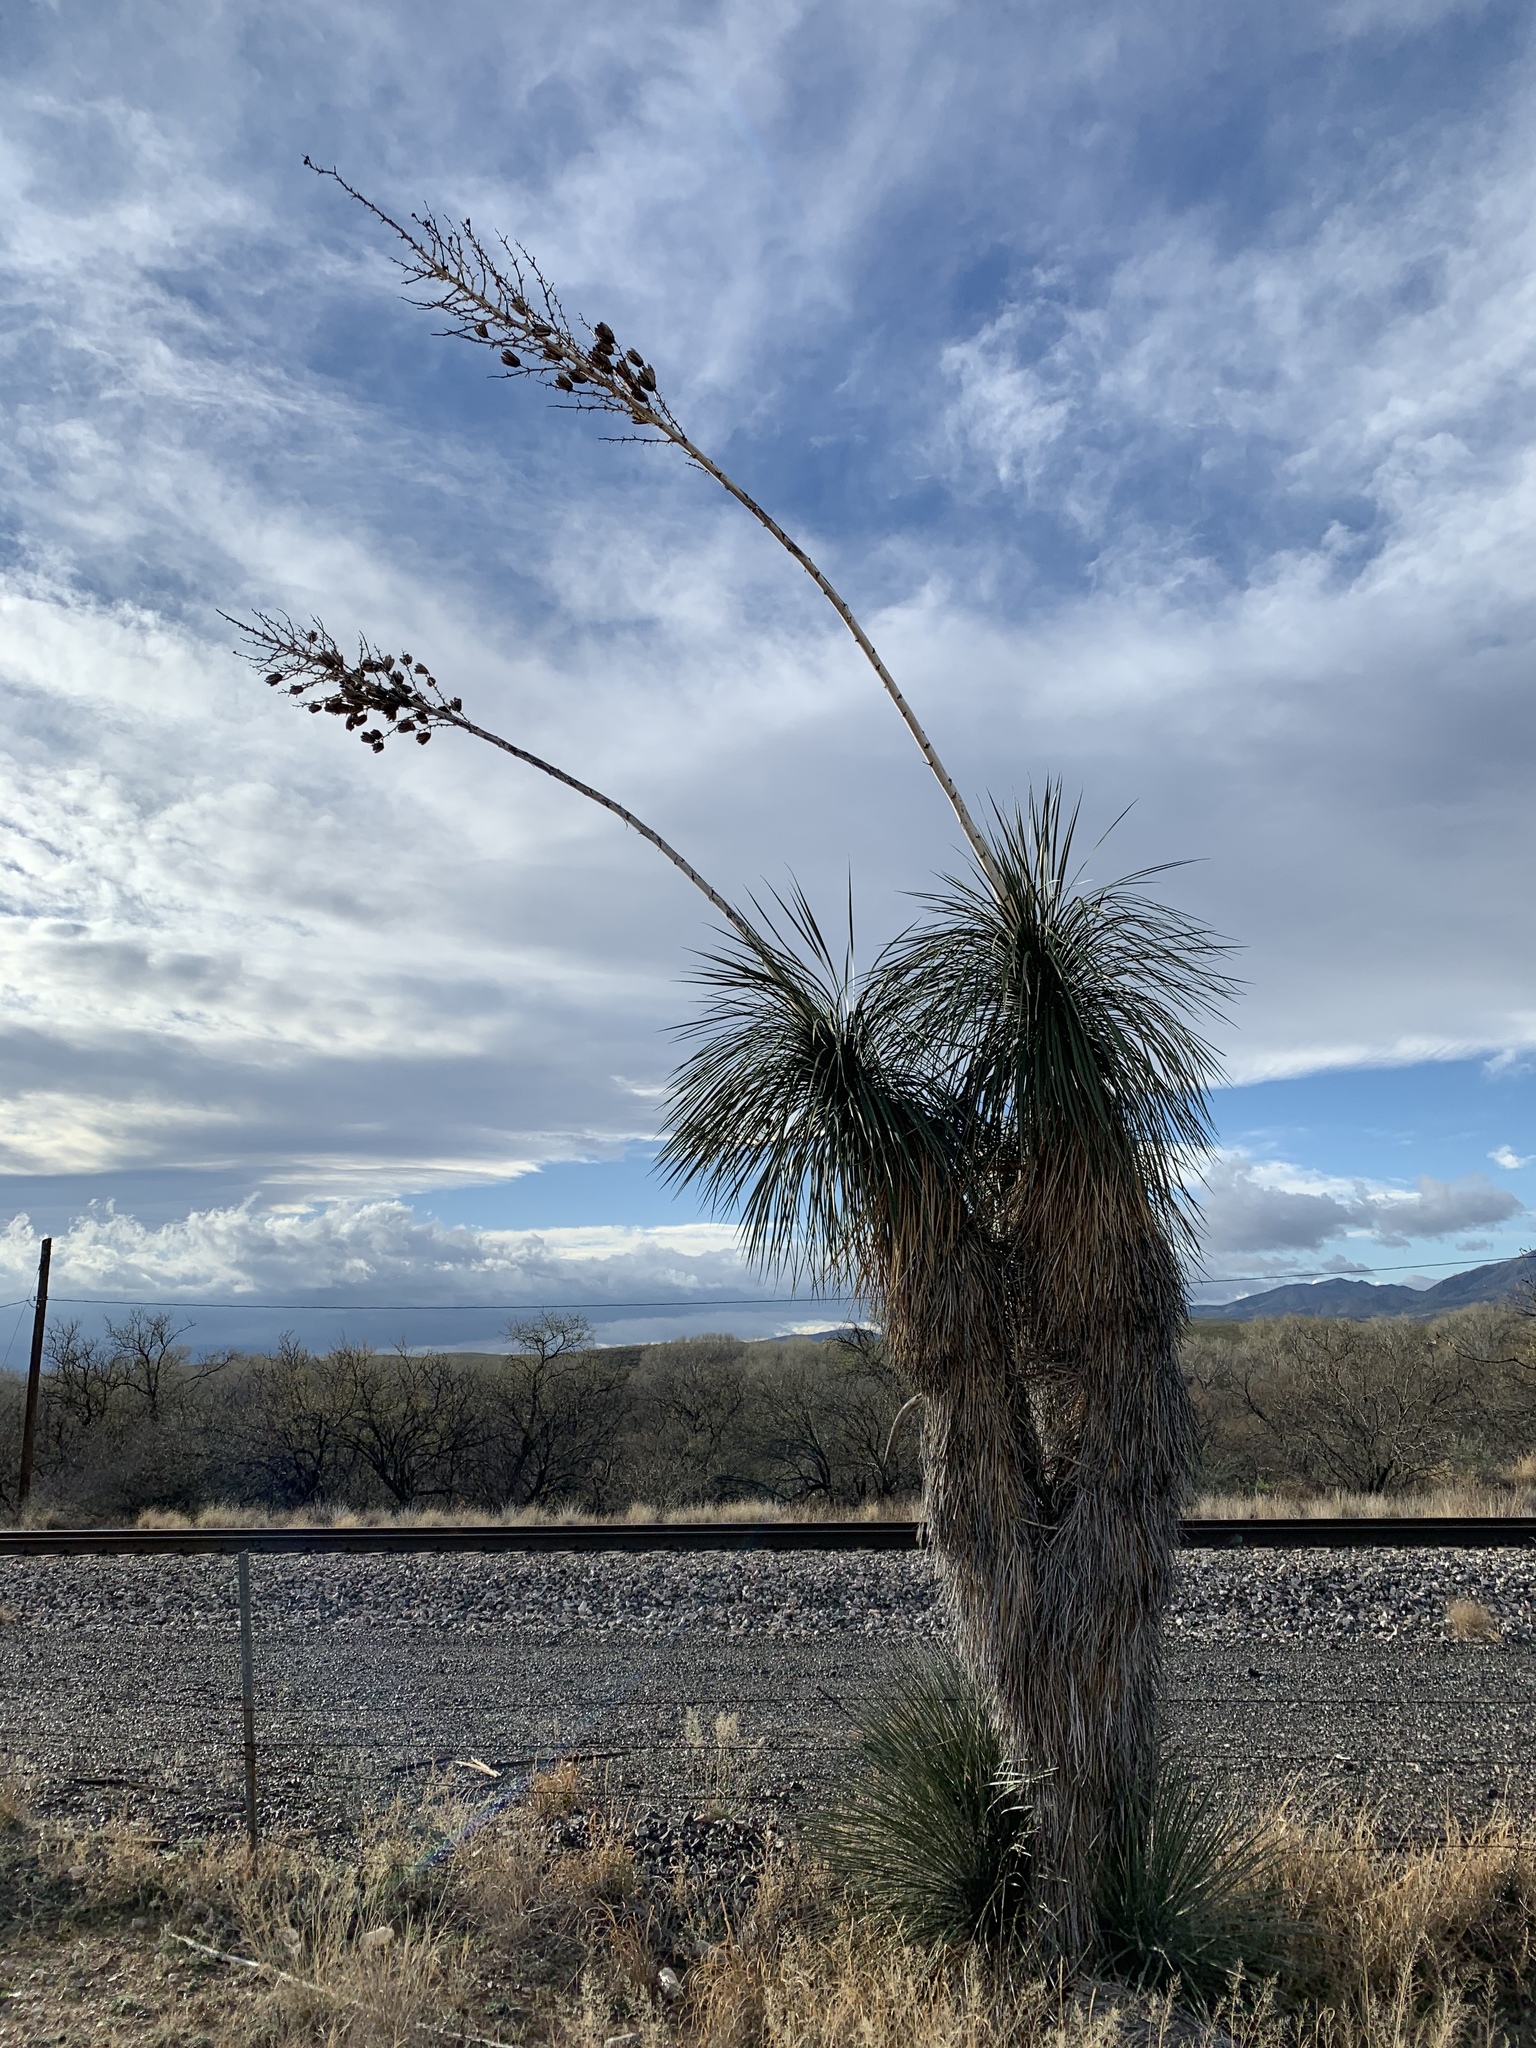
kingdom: Plantae
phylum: Tracheophyta
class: Liliopsida
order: Asparagales
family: Asparagaceae
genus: Yucca
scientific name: Yucca elata
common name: Palmella
